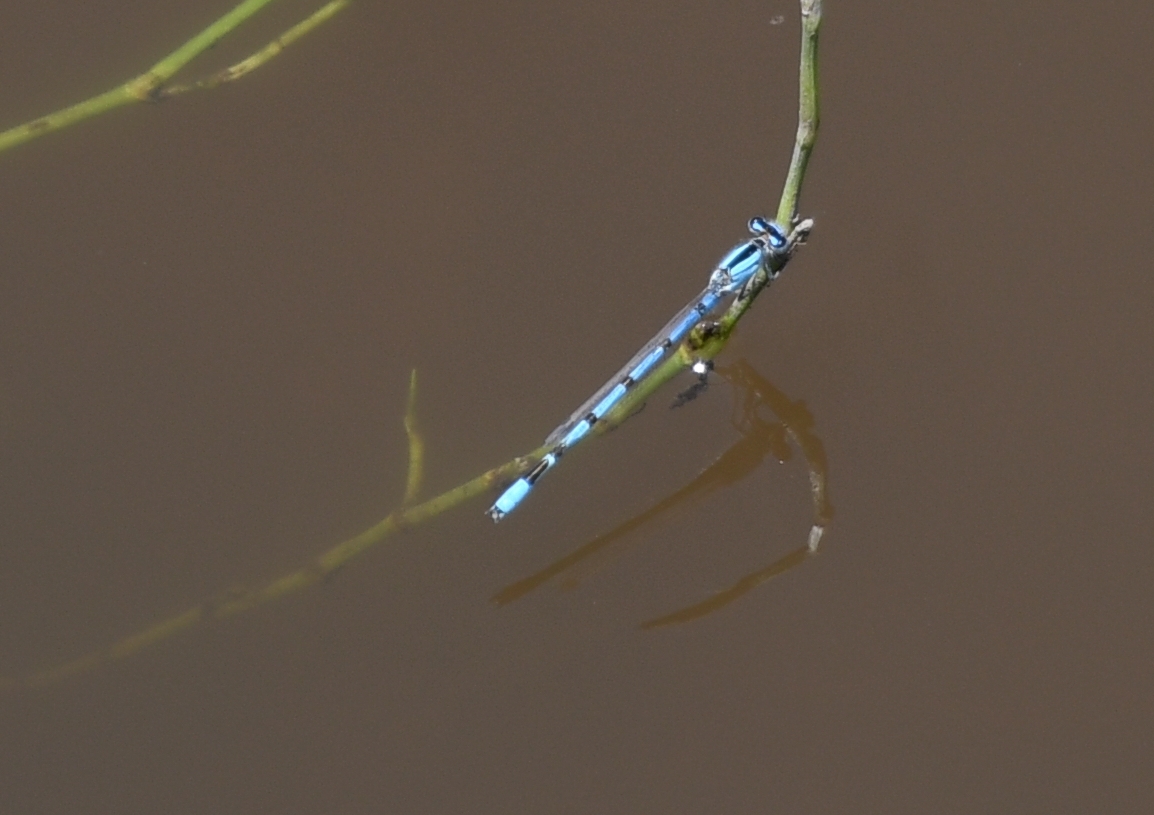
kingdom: Animalia
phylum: Arthropoda
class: Insecta
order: Odonata
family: Coenagrionidae
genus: Enallagma
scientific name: Enallagma civile
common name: Damselfly
